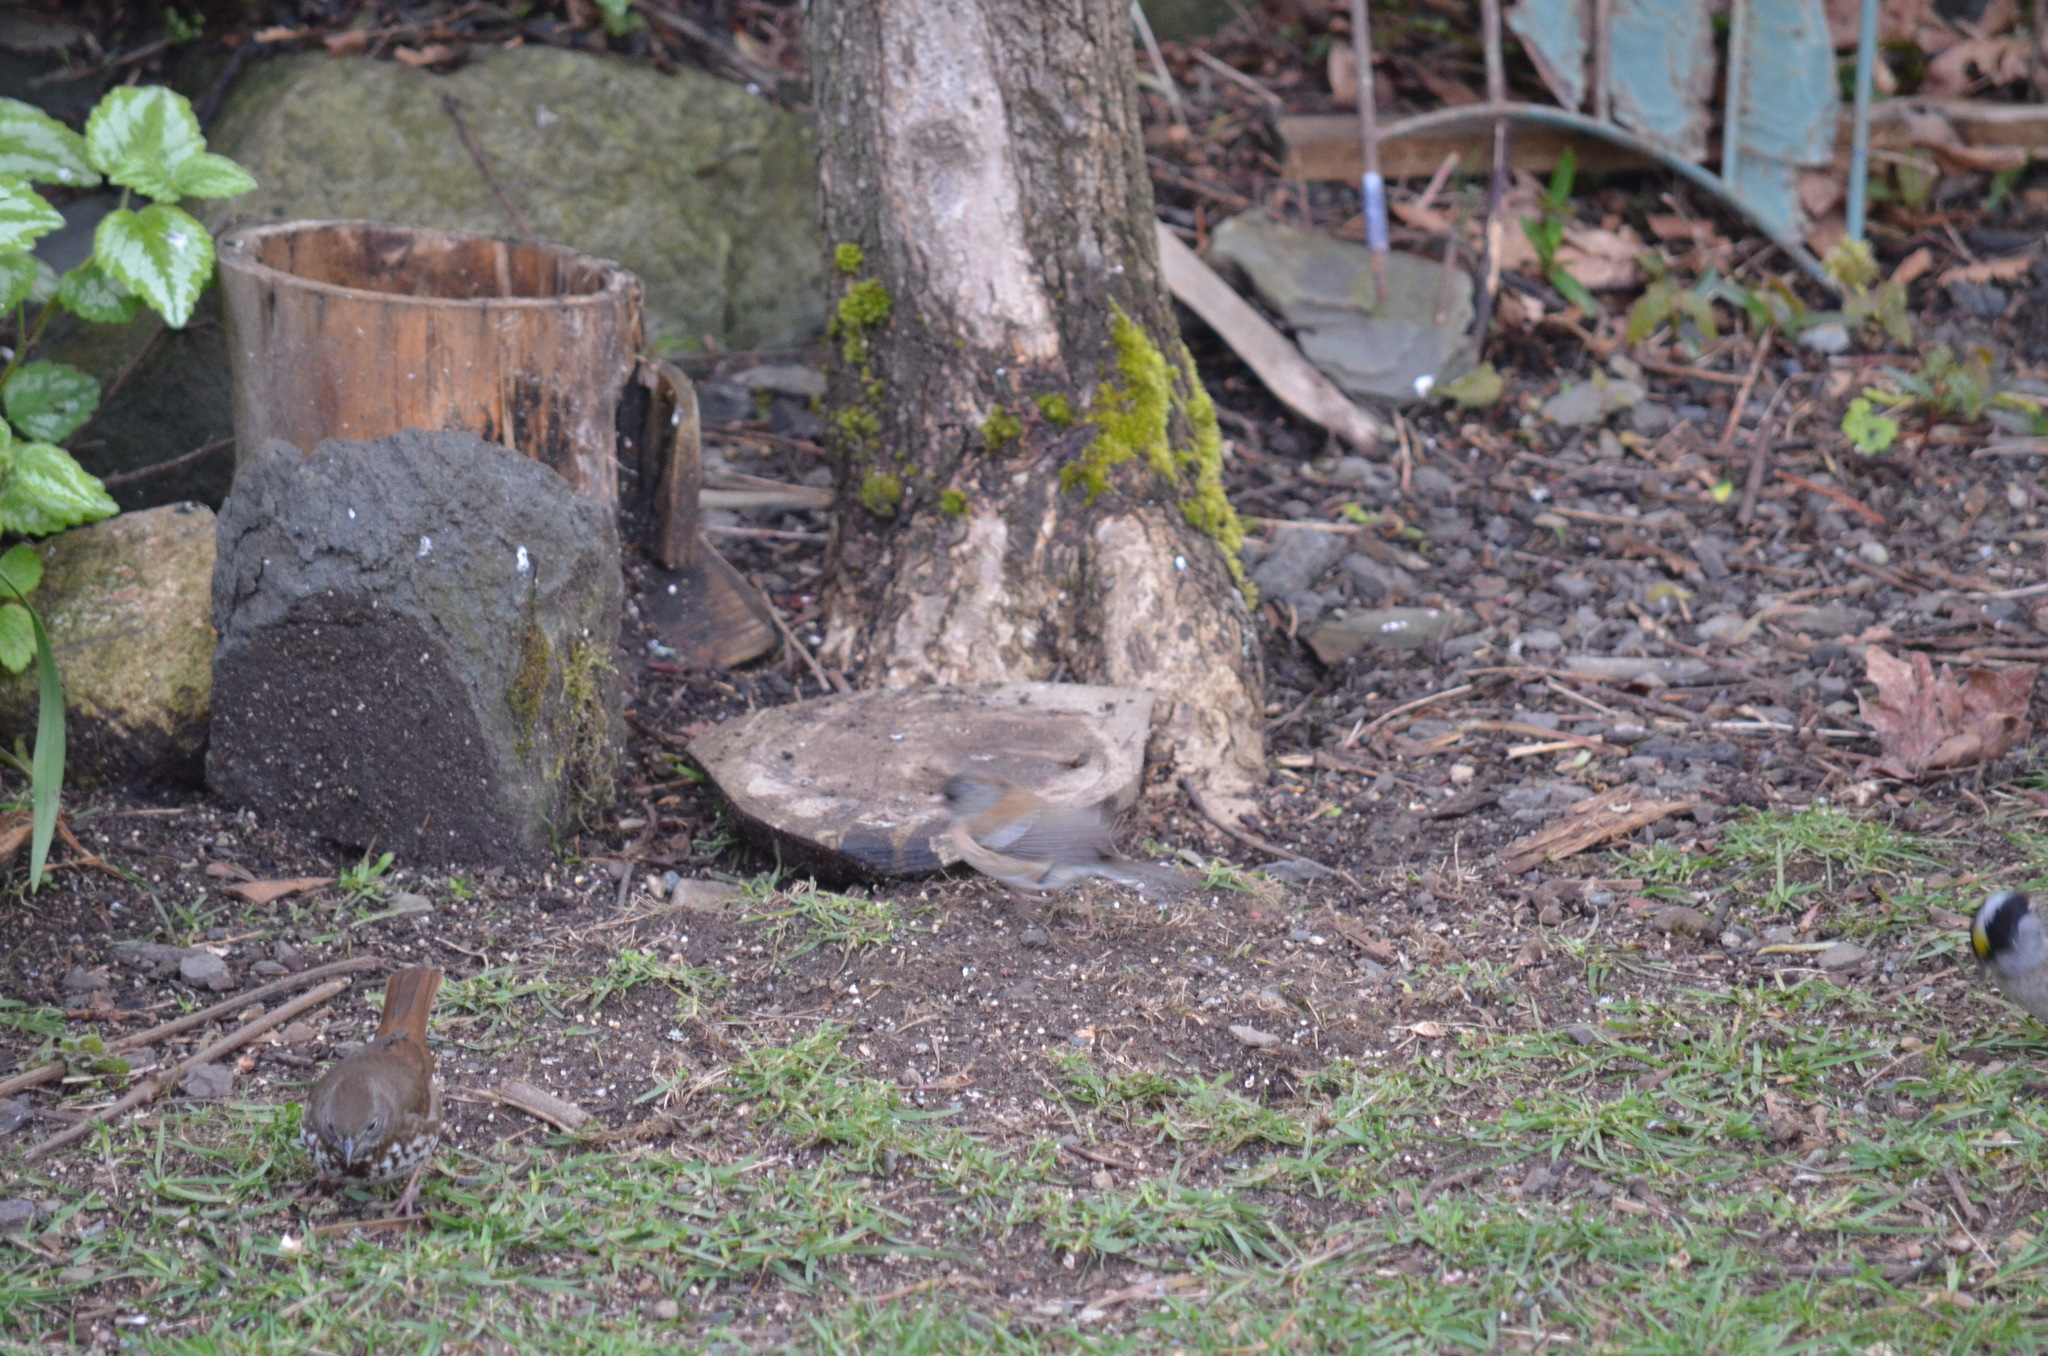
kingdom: Animalia
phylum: Chordata
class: Aves
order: Passeriformes
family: Passerellidae
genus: Junco
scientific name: Junco hyemalis
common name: Dark-eyed junco
